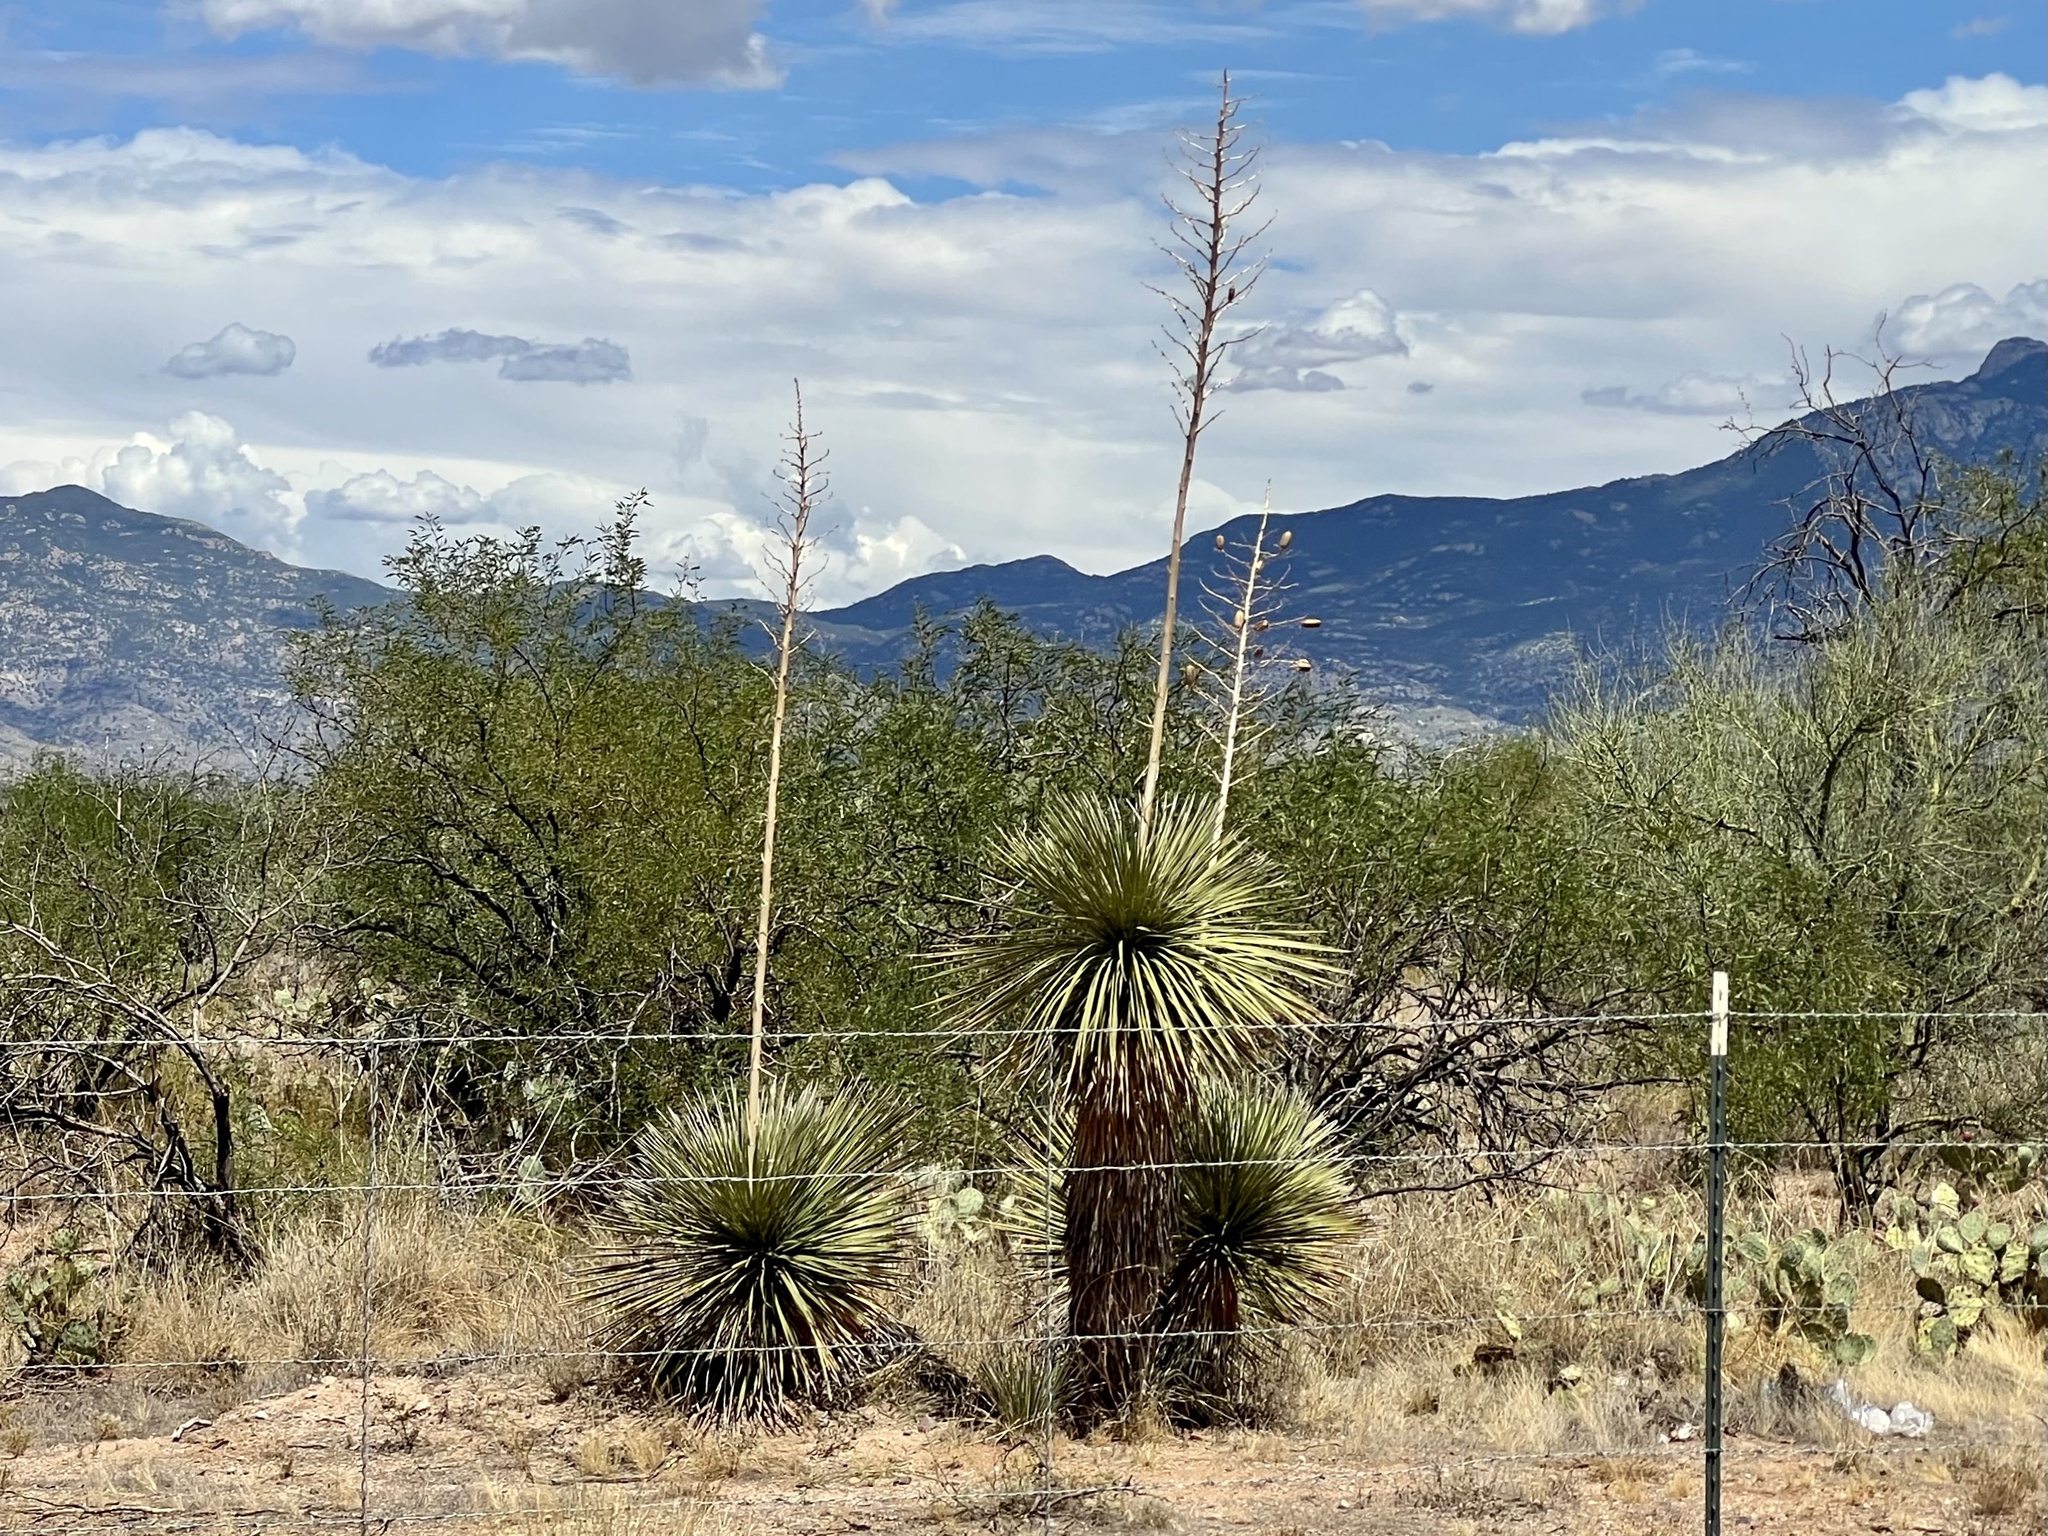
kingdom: Plantae
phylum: Tracheophyta
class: Liliopsida
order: Asparagales
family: Asparagaceae
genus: Yucca
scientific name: Yucca elata
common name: Palmella
